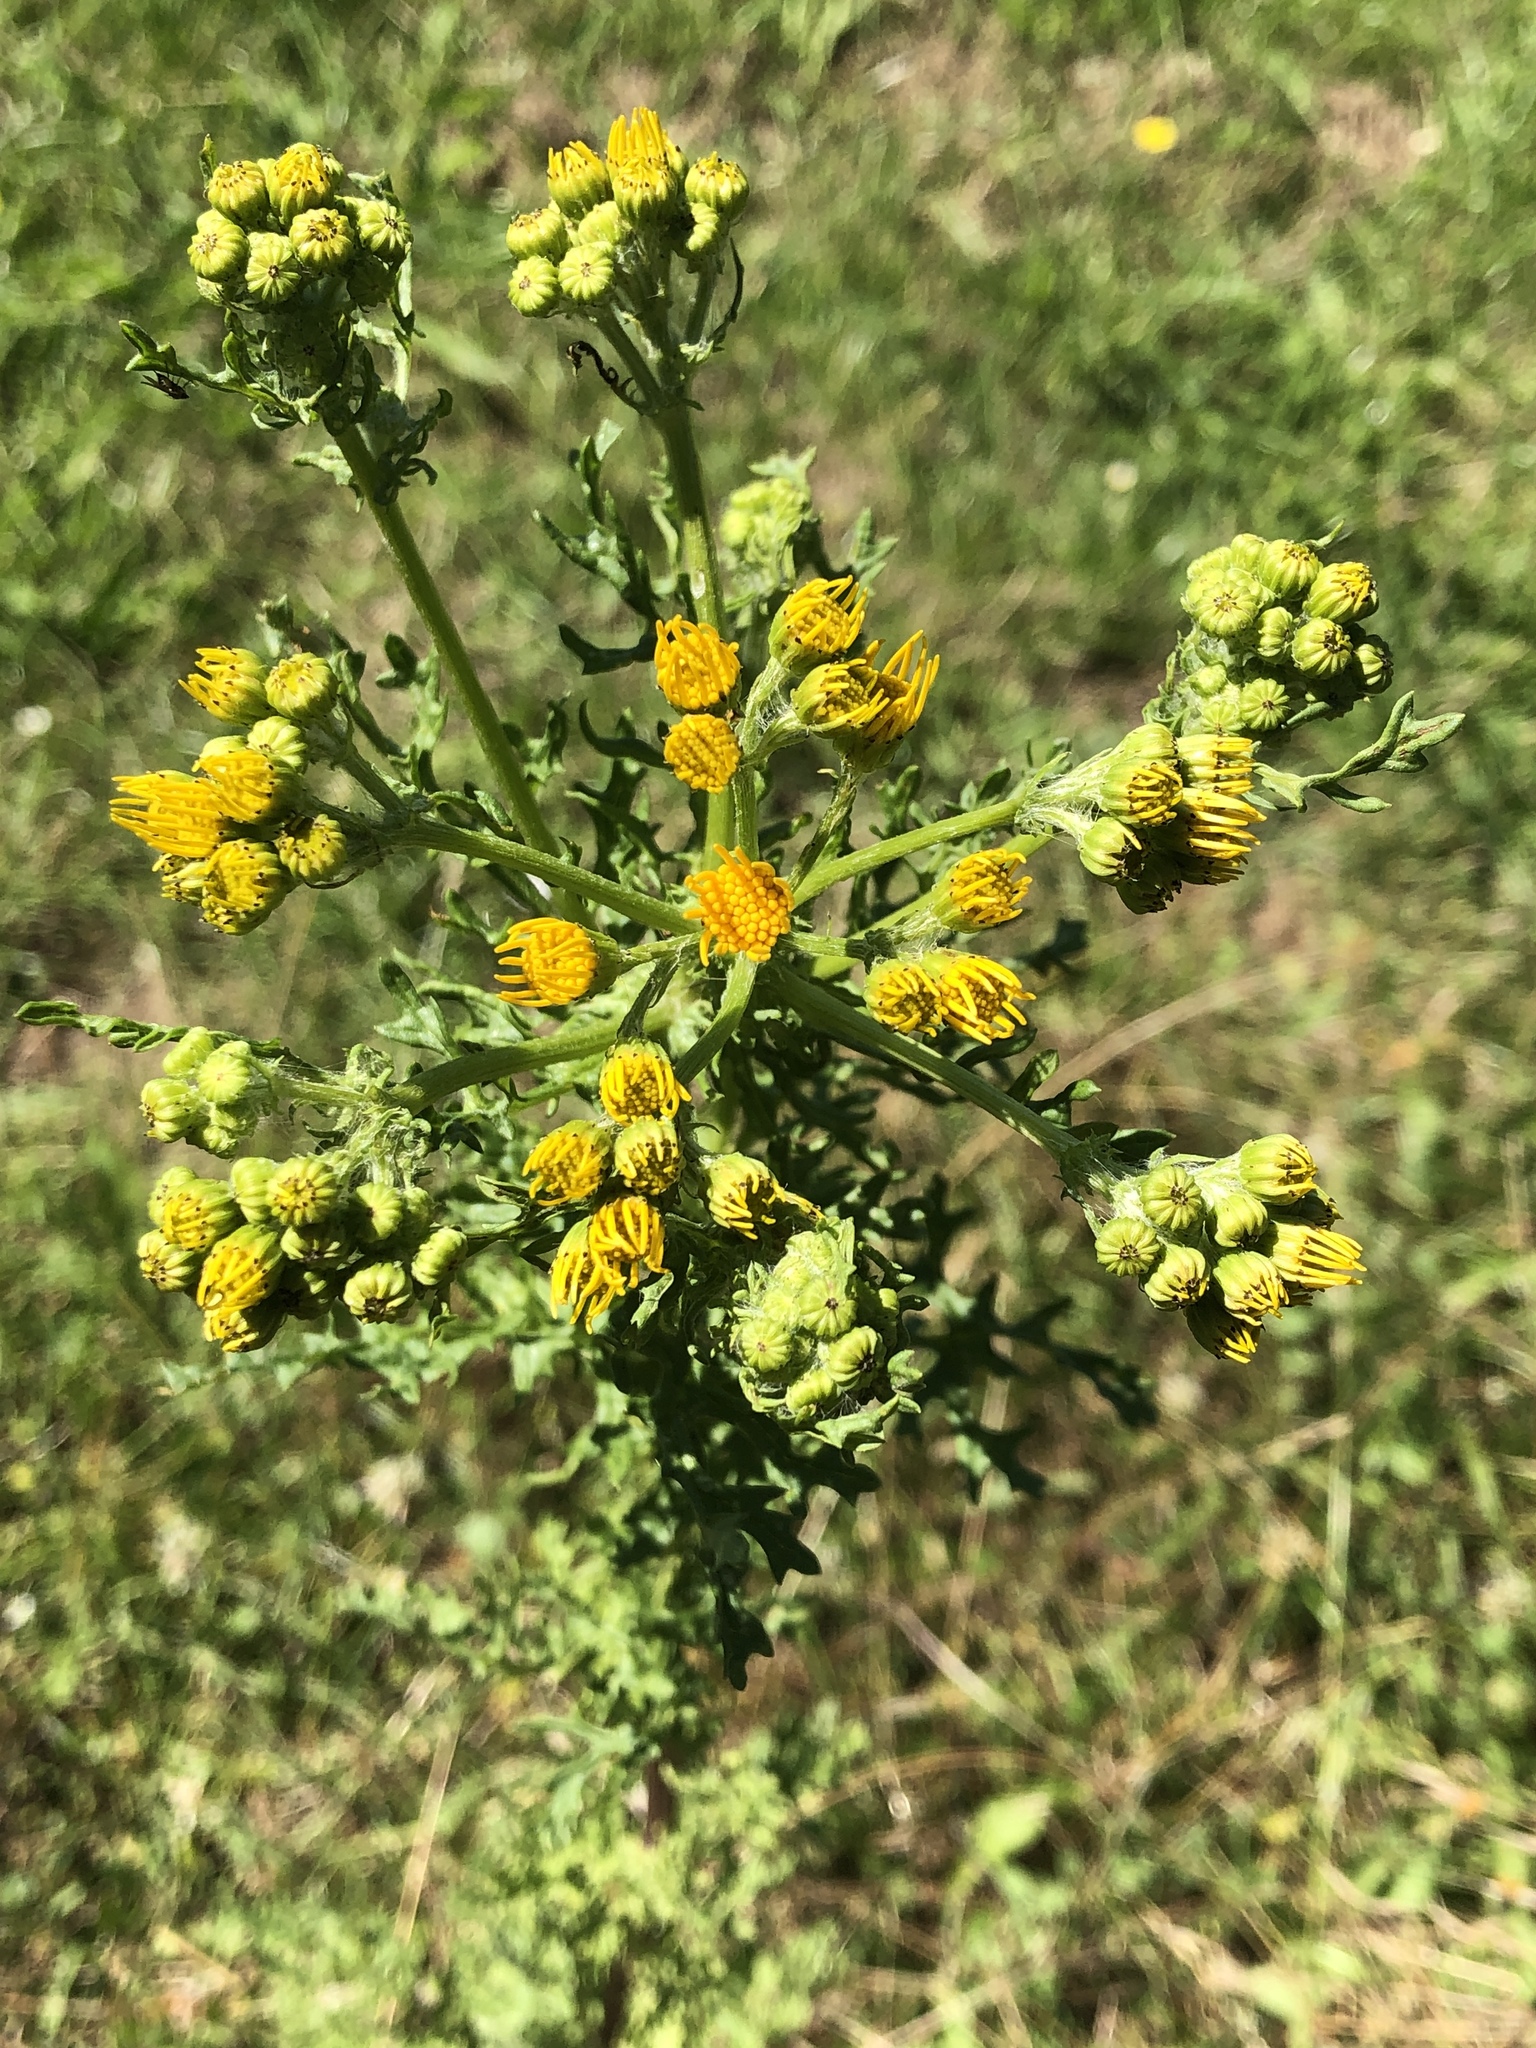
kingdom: Plantae
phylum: Tracheophyta
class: Magnoliopsida
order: Asterales
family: Asteraceae
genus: Jacobaea
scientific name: Jacobaea vulgaris
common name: Stinking willie
